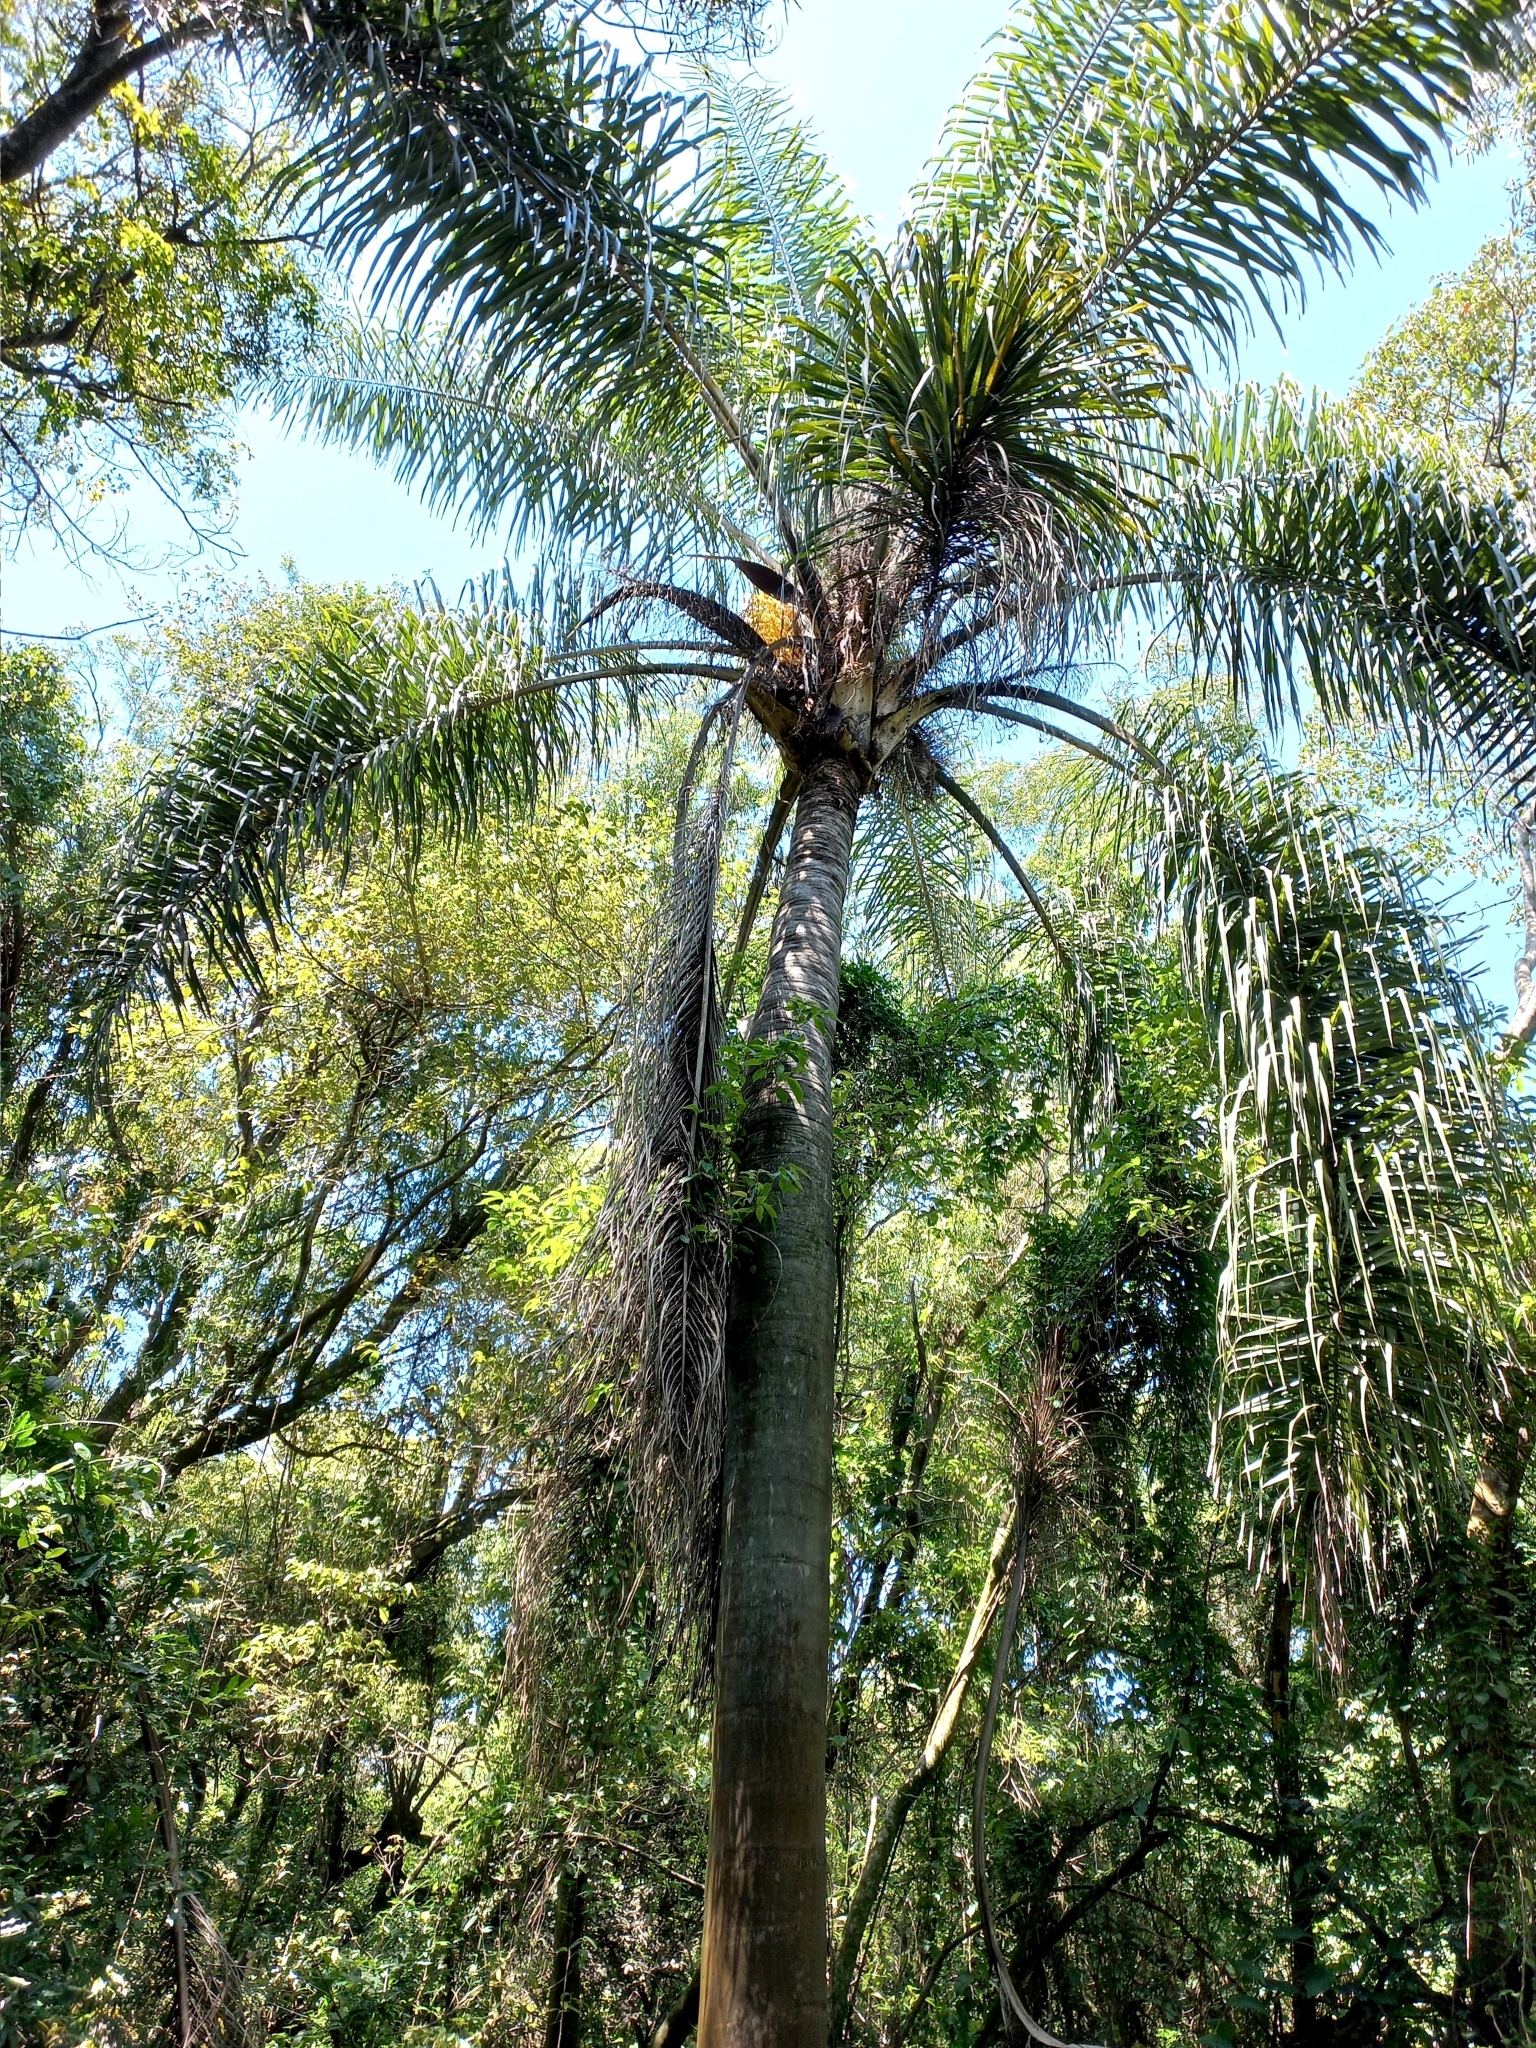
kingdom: Plantae
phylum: Tracheophyta
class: Liliopsida
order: Arecales
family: Arecaceae
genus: Syagrus
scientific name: Syagrus romanzoffiana
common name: Queen palm
